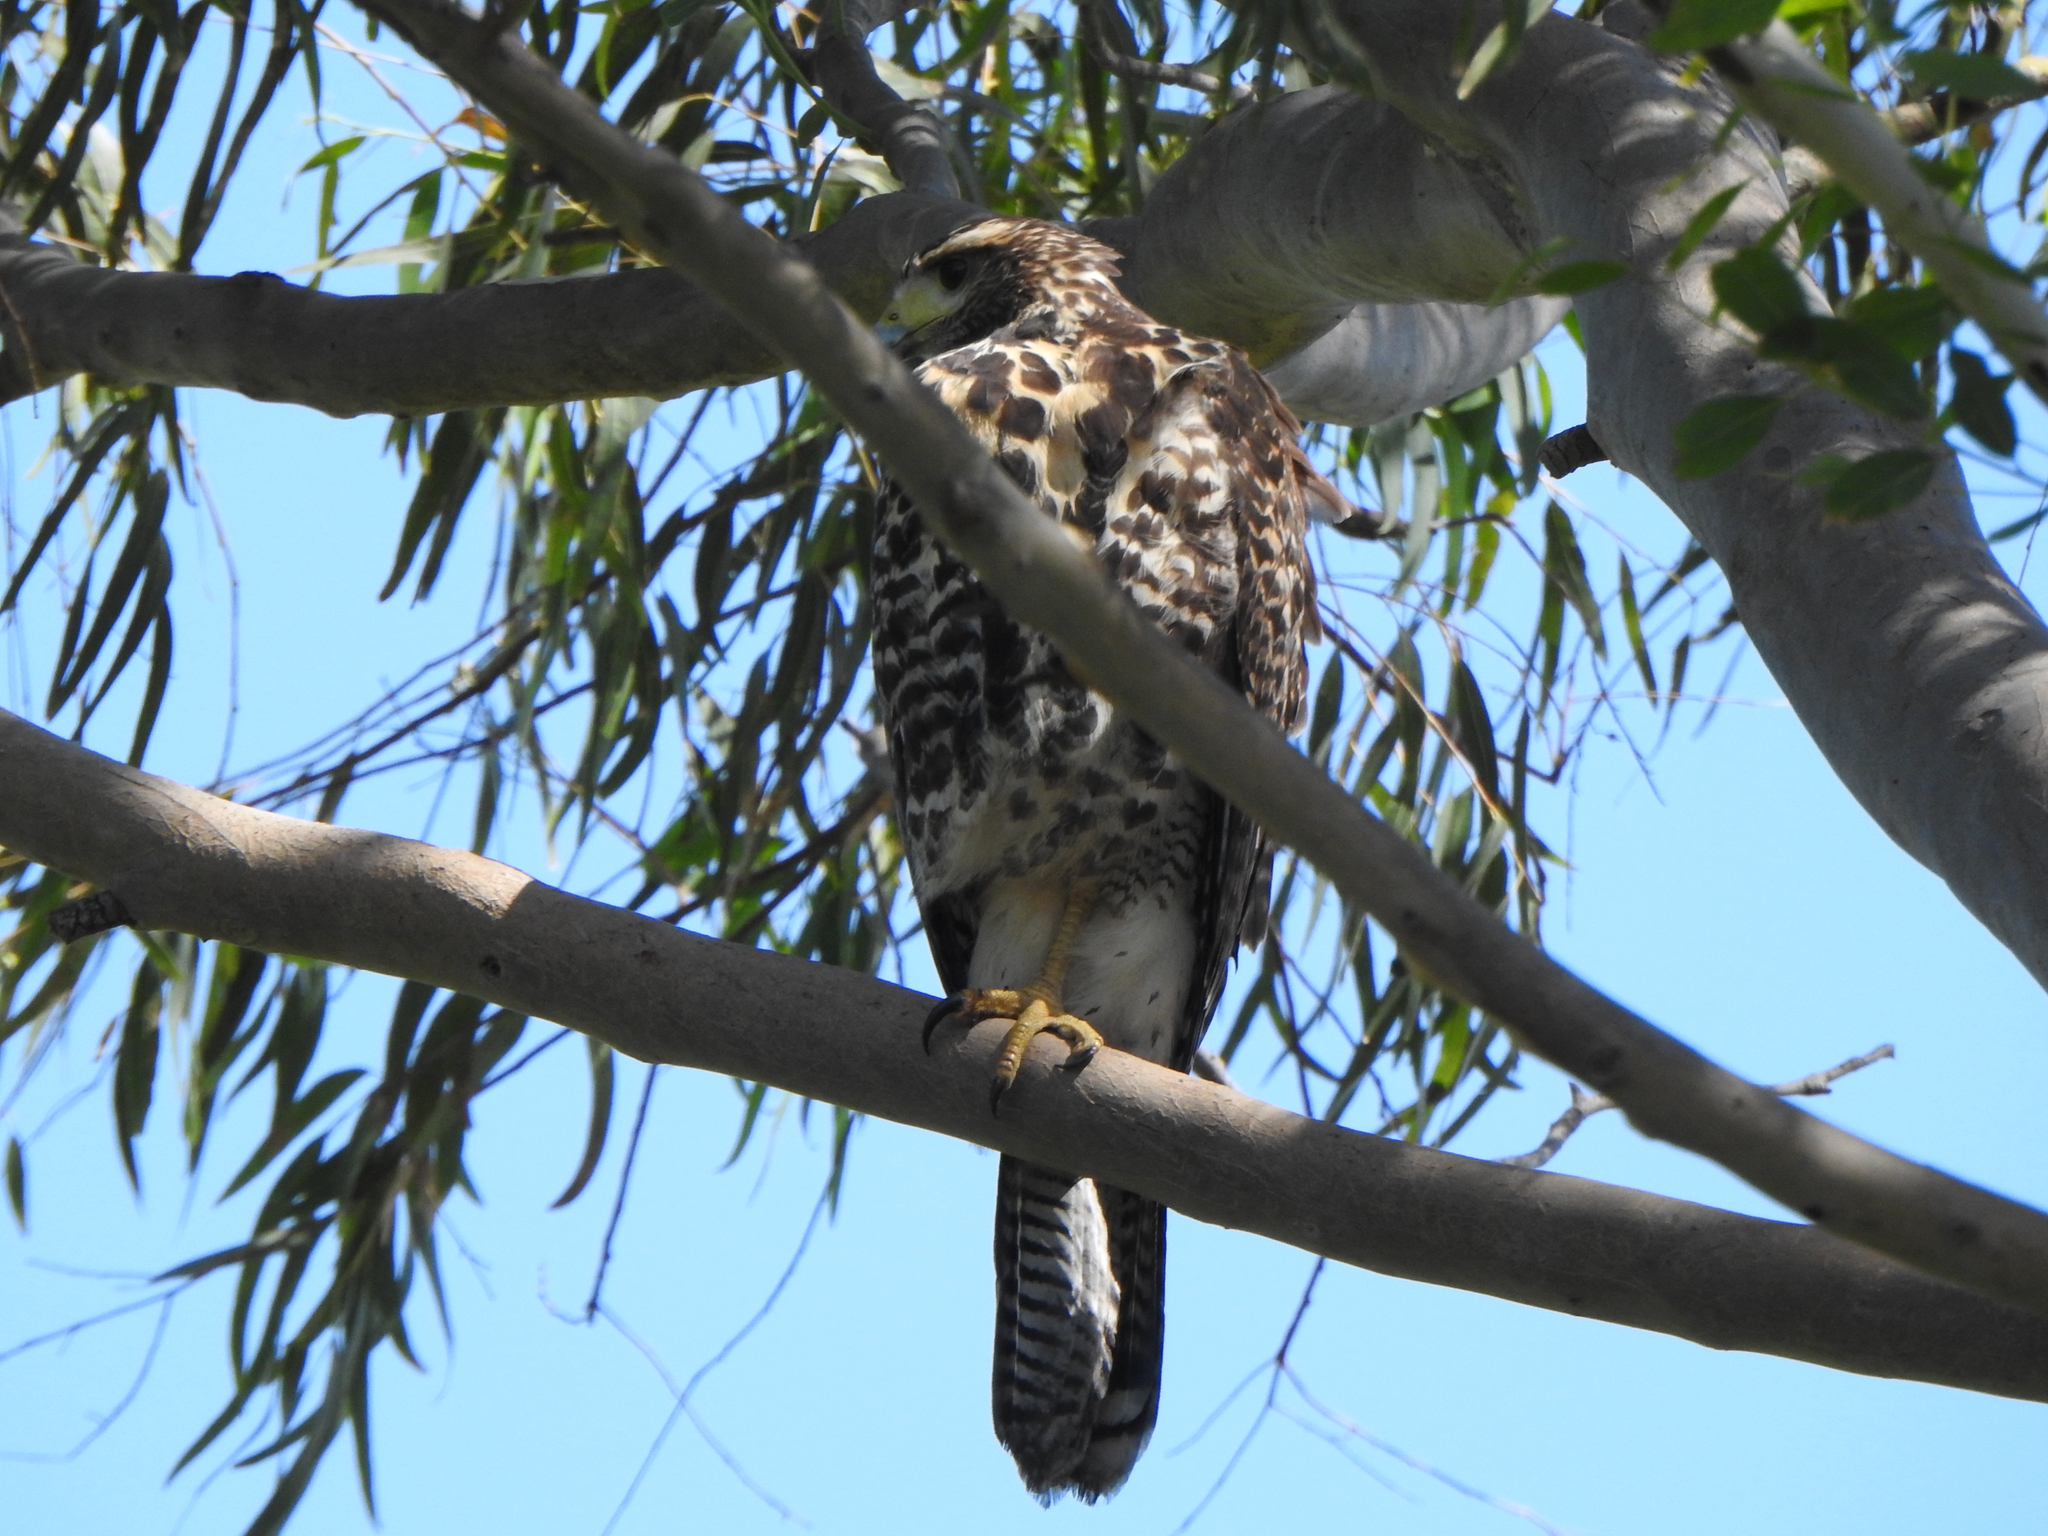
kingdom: Animalia
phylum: Chordata
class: Aves
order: Accipitriformes
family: Accipitridae
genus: Parabuteo
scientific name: Parabuteo unicinctus
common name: Harris's hawk
